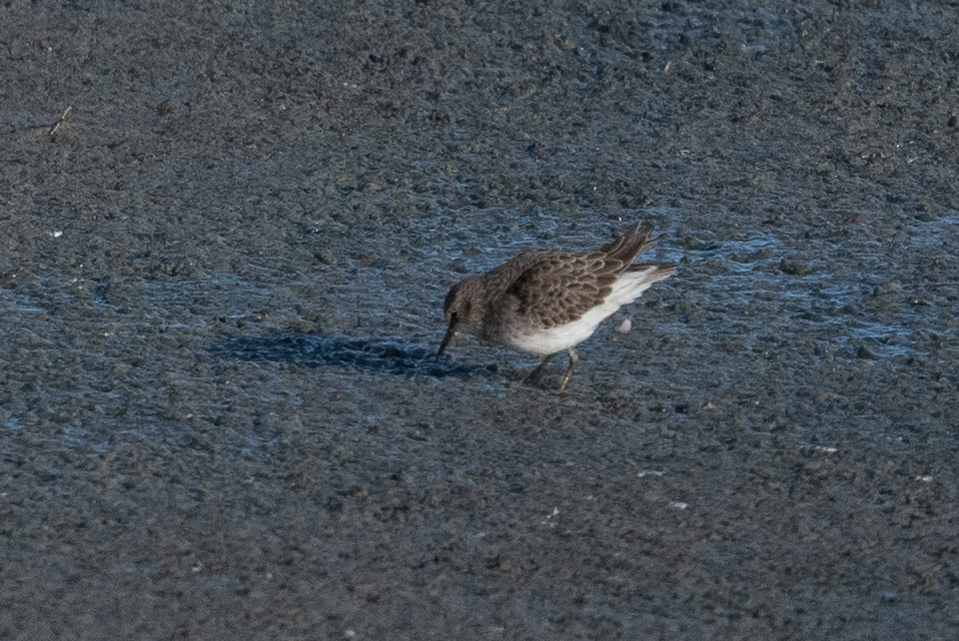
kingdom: Animalia
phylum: Chordata
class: Aves
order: Charadriiformes
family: Scolopacidae
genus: Calidris
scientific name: Calidris minutilla
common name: Least sandpiper
